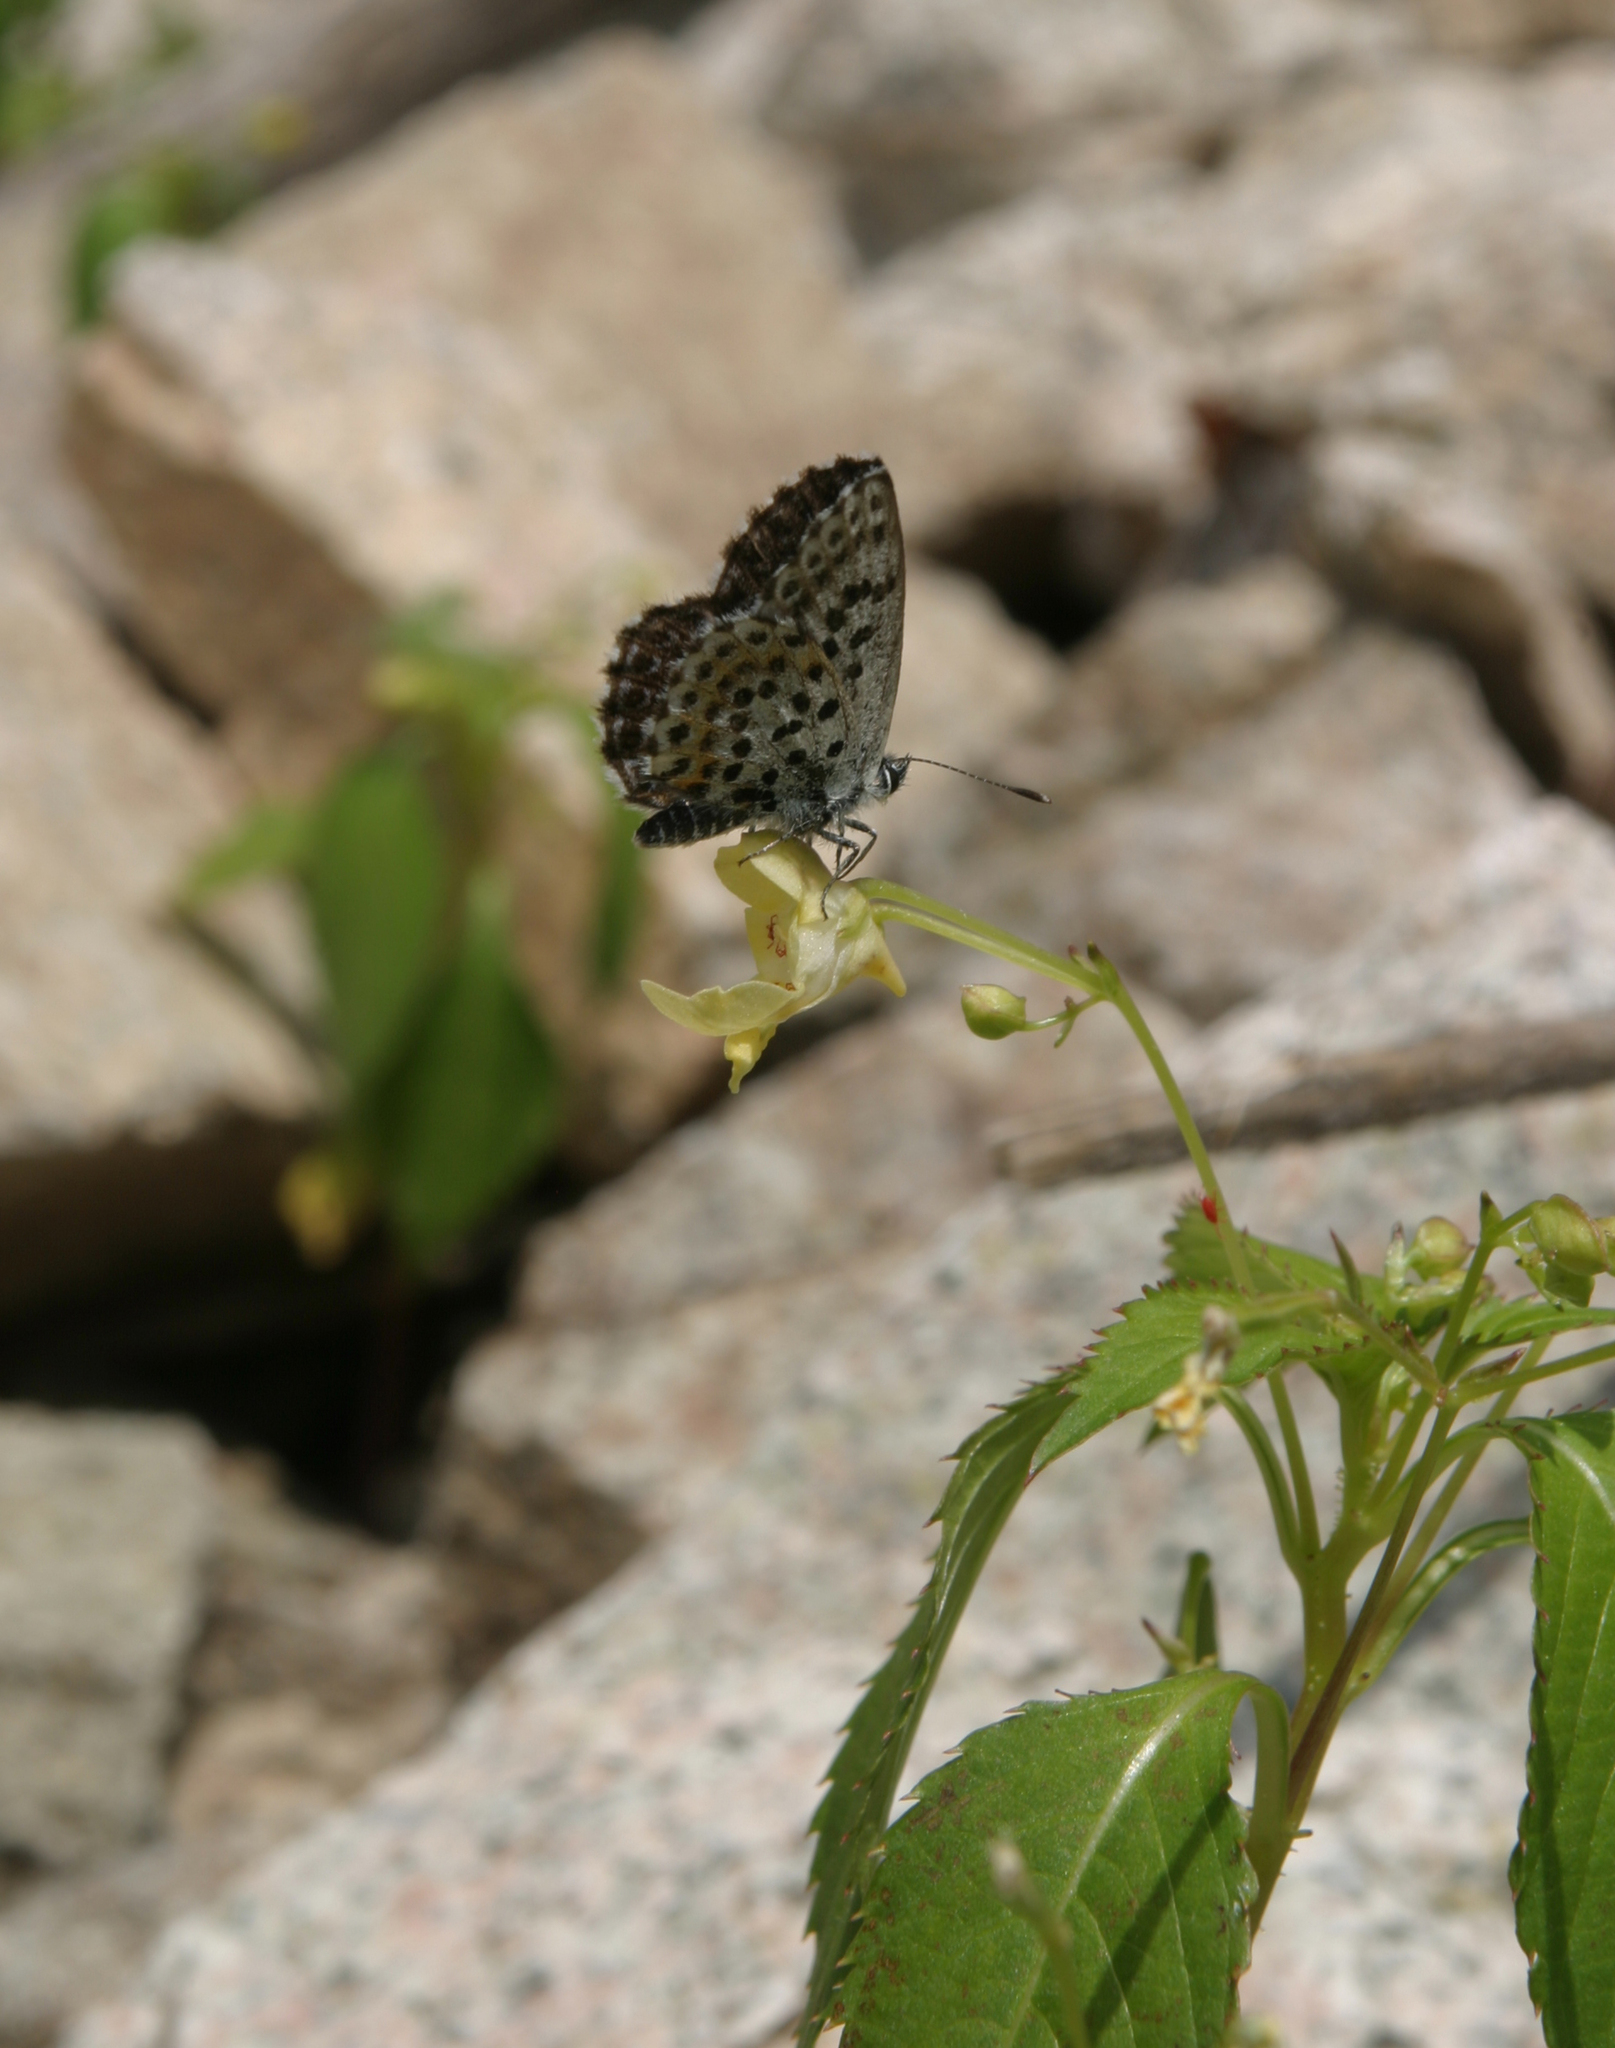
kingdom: Animalia
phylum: Arthropoda
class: Insecta
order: Lepidoptera
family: Lycaenidae
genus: Scolitantides
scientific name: Scolitantides orion
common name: Chequered blue
